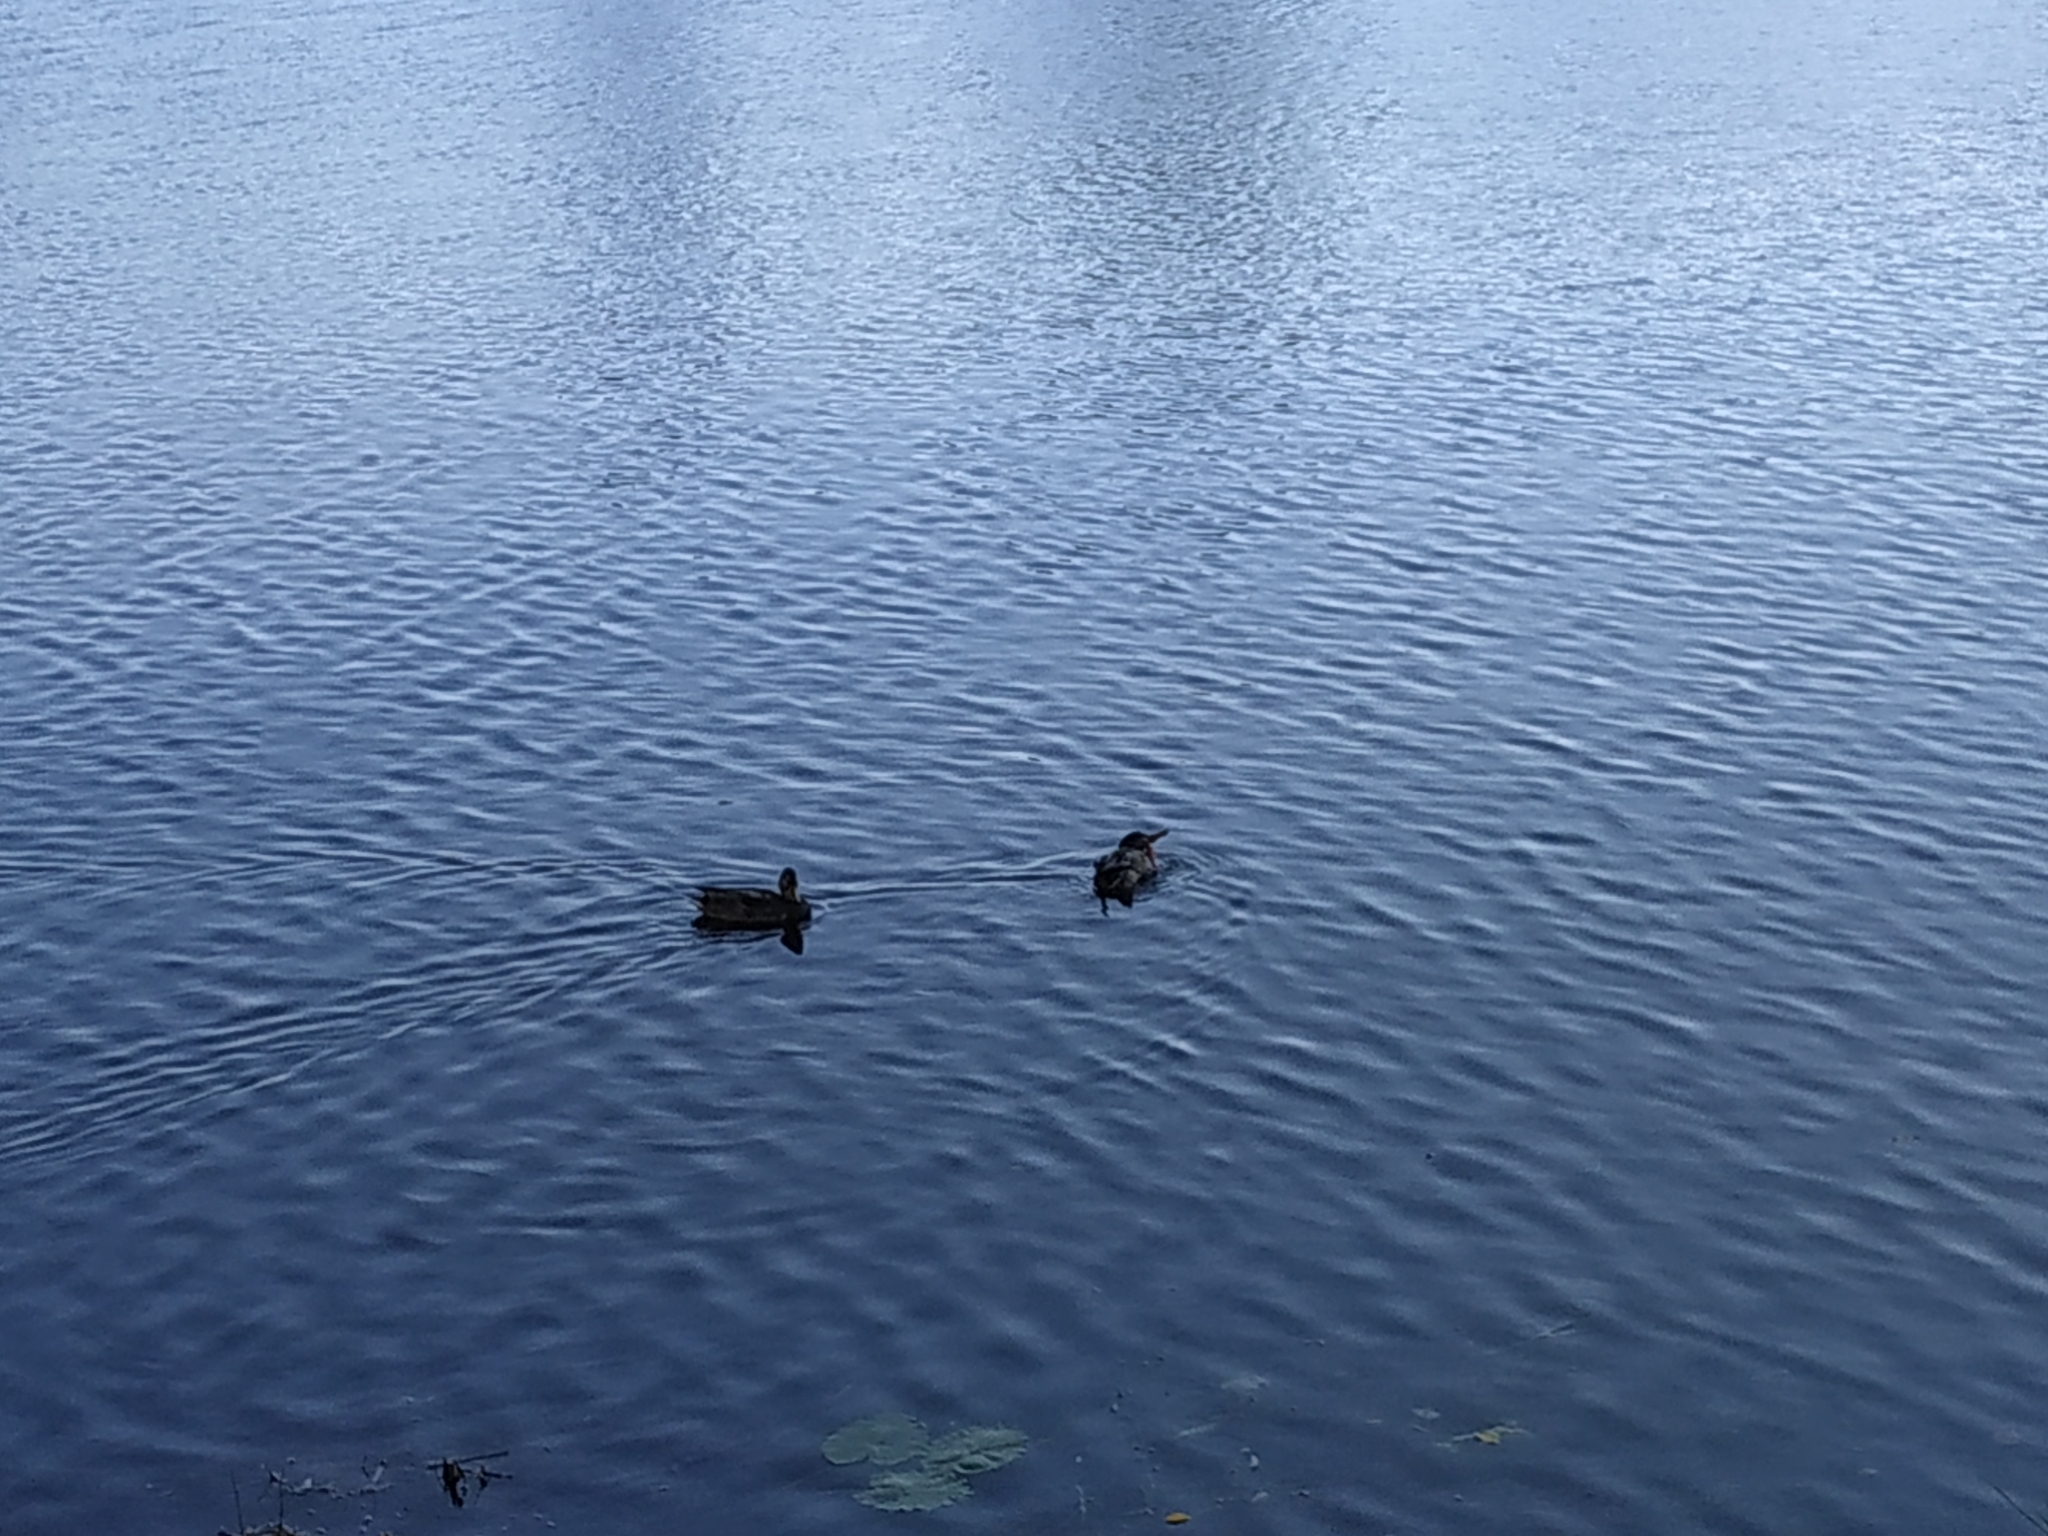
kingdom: Animalia
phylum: Chordata
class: Aves
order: Anseriformes
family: Anatidae
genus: Anas
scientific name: Anas platyrhynchos
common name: Mallard
